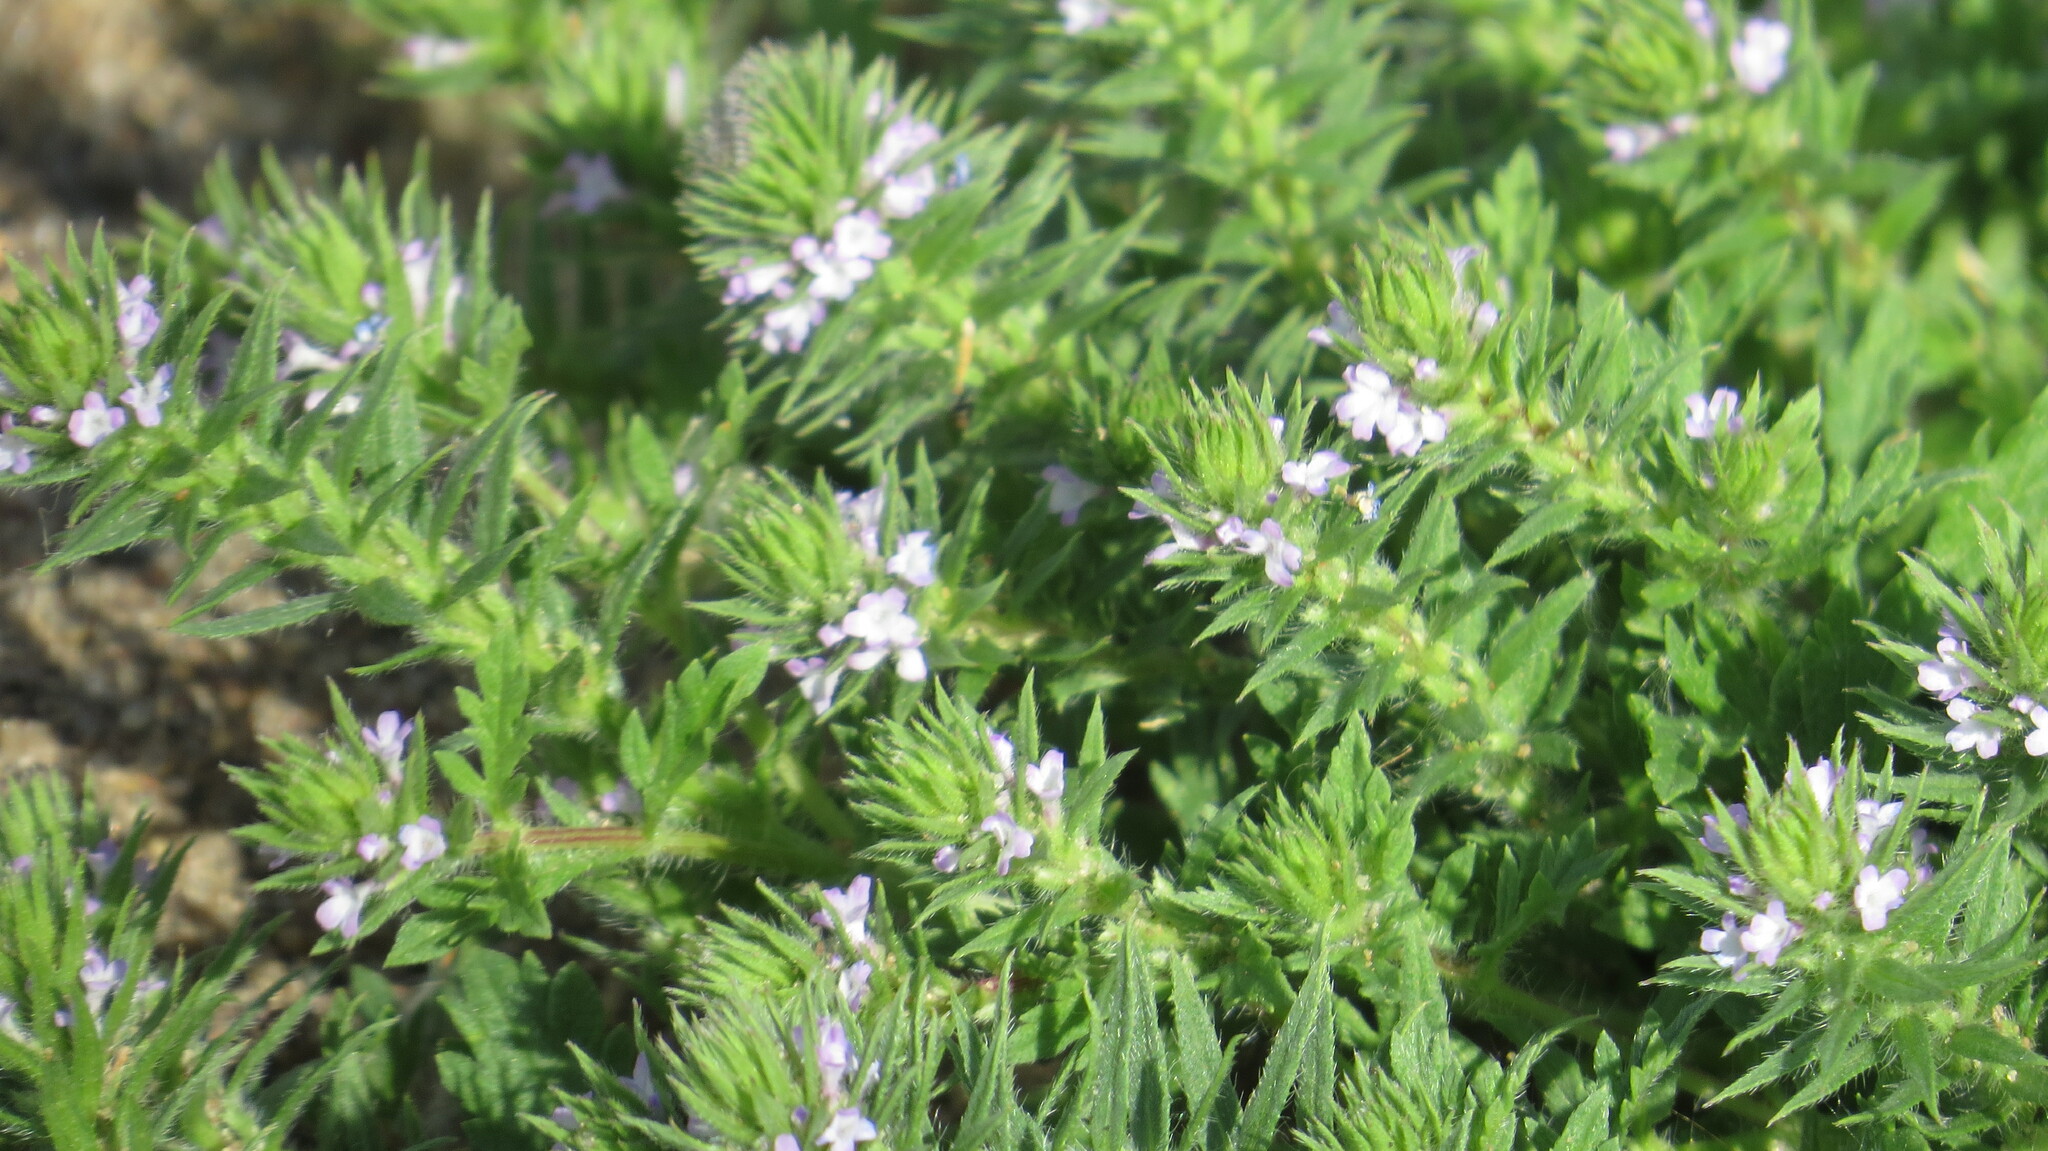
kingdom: Plantae
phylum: Tracheophyta
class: Magnoliopsida
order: Lamiales
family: Verbenaceae
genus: Verbena
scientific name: Verbena bracteata
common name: Bracted vervain
